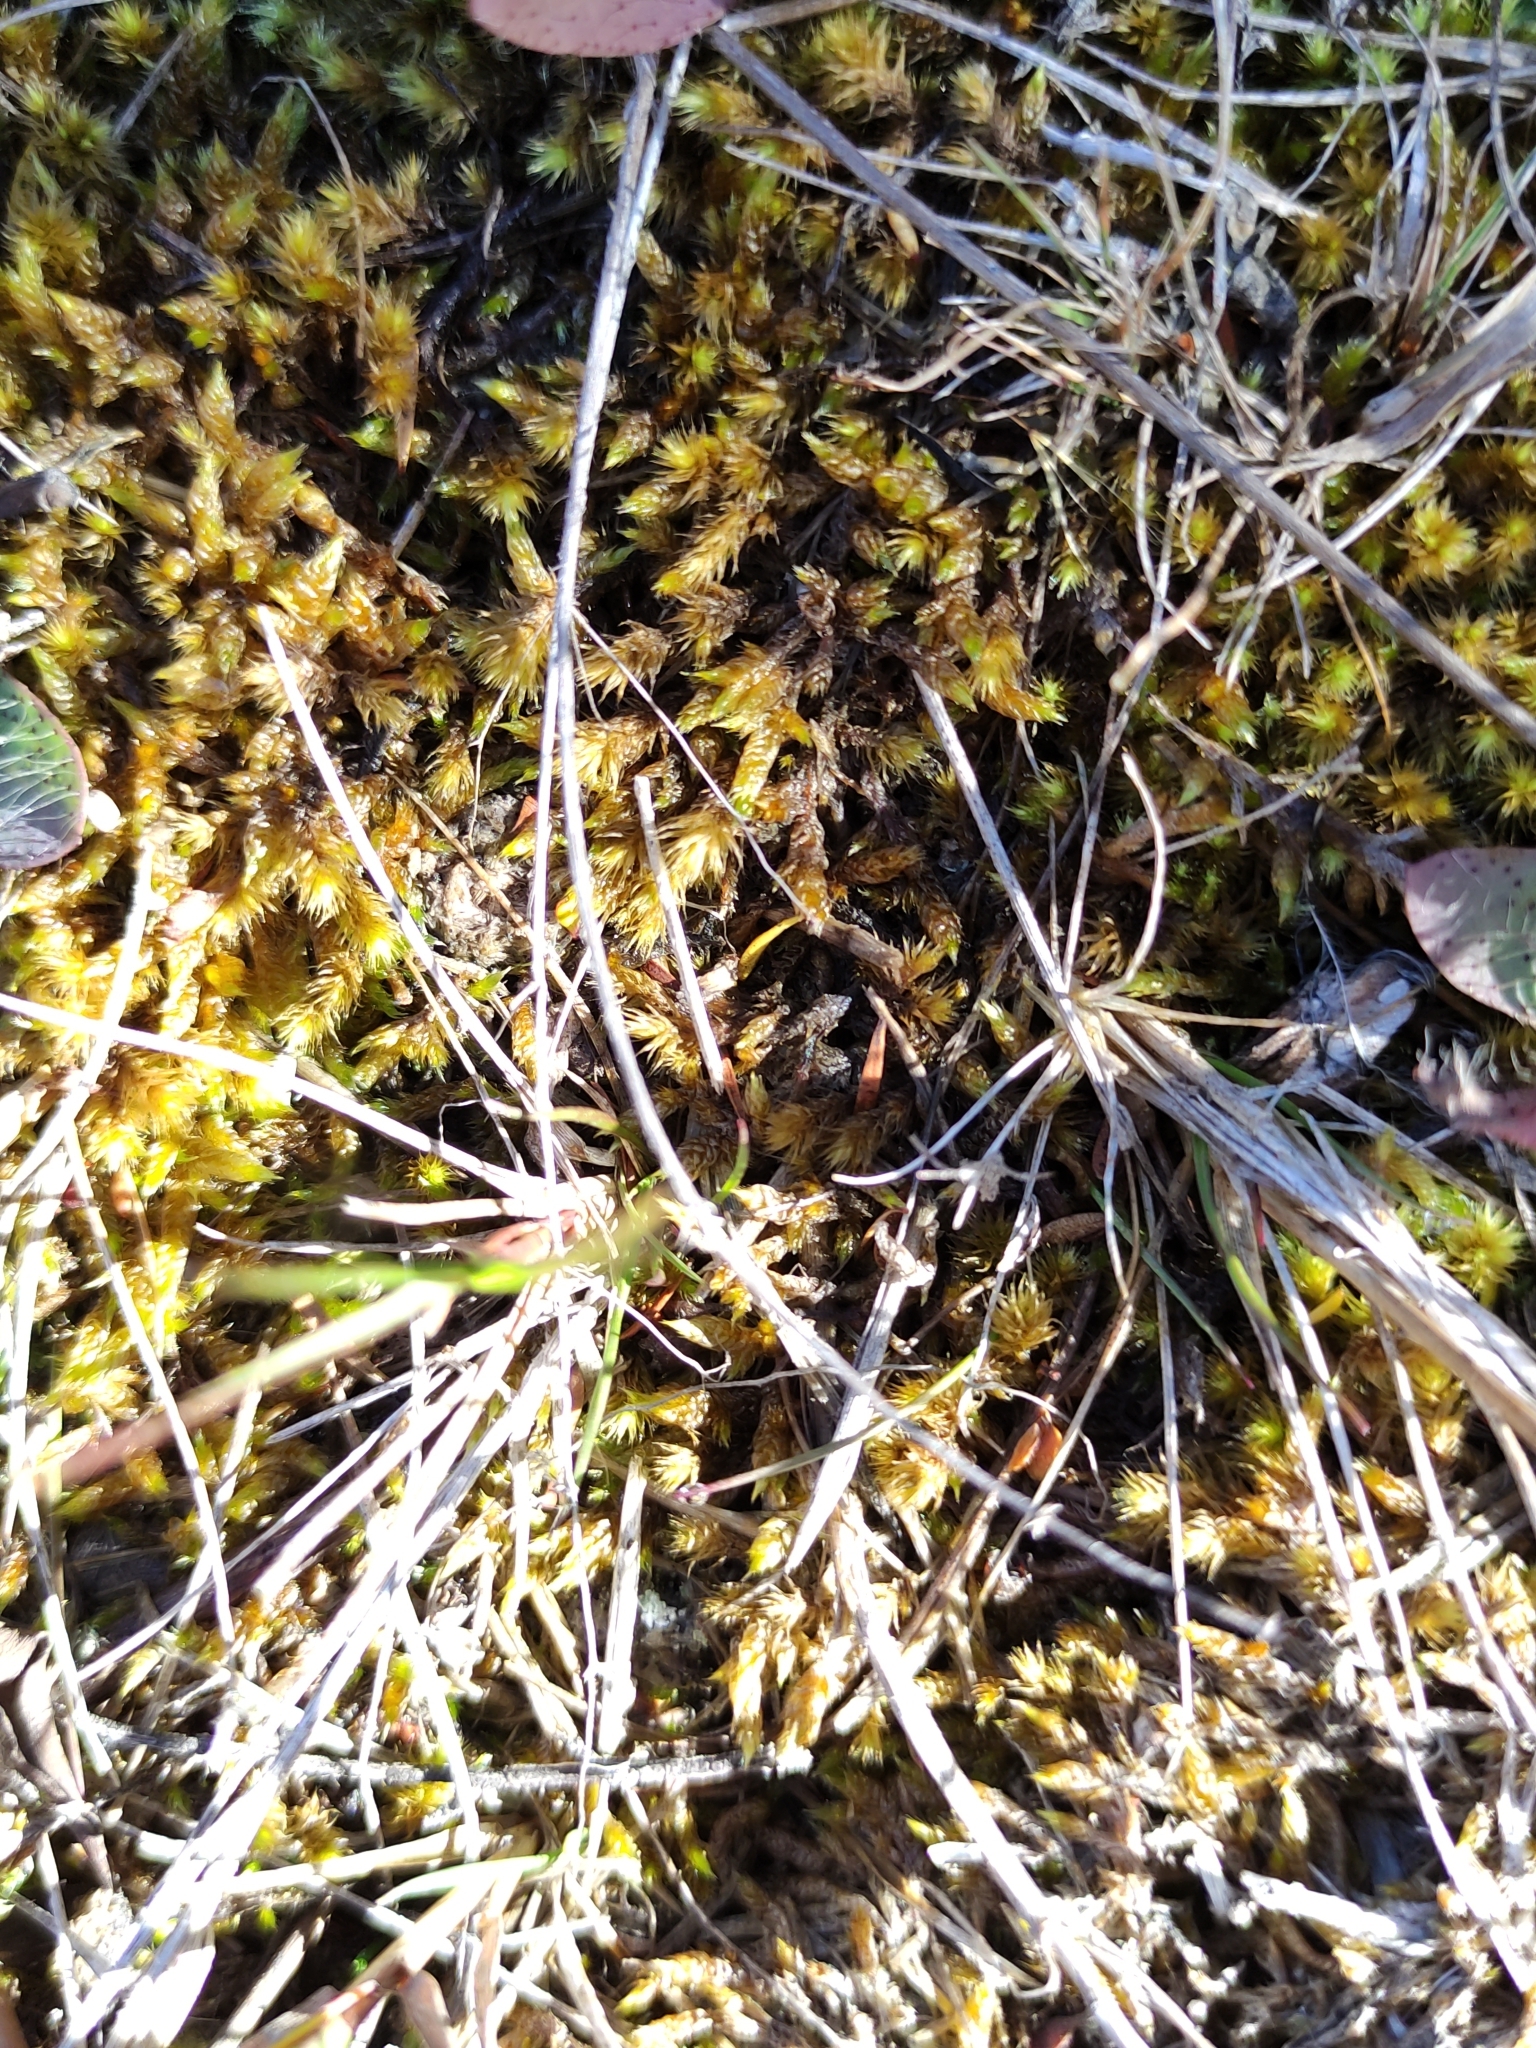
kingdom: Plantae
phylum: Bryophyta
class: Bryopsida
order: Hypnales
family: Hypnaceae
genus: Hypnum
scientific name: Hypnum cupressiforme
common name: Cypress-leaved plait-moss
